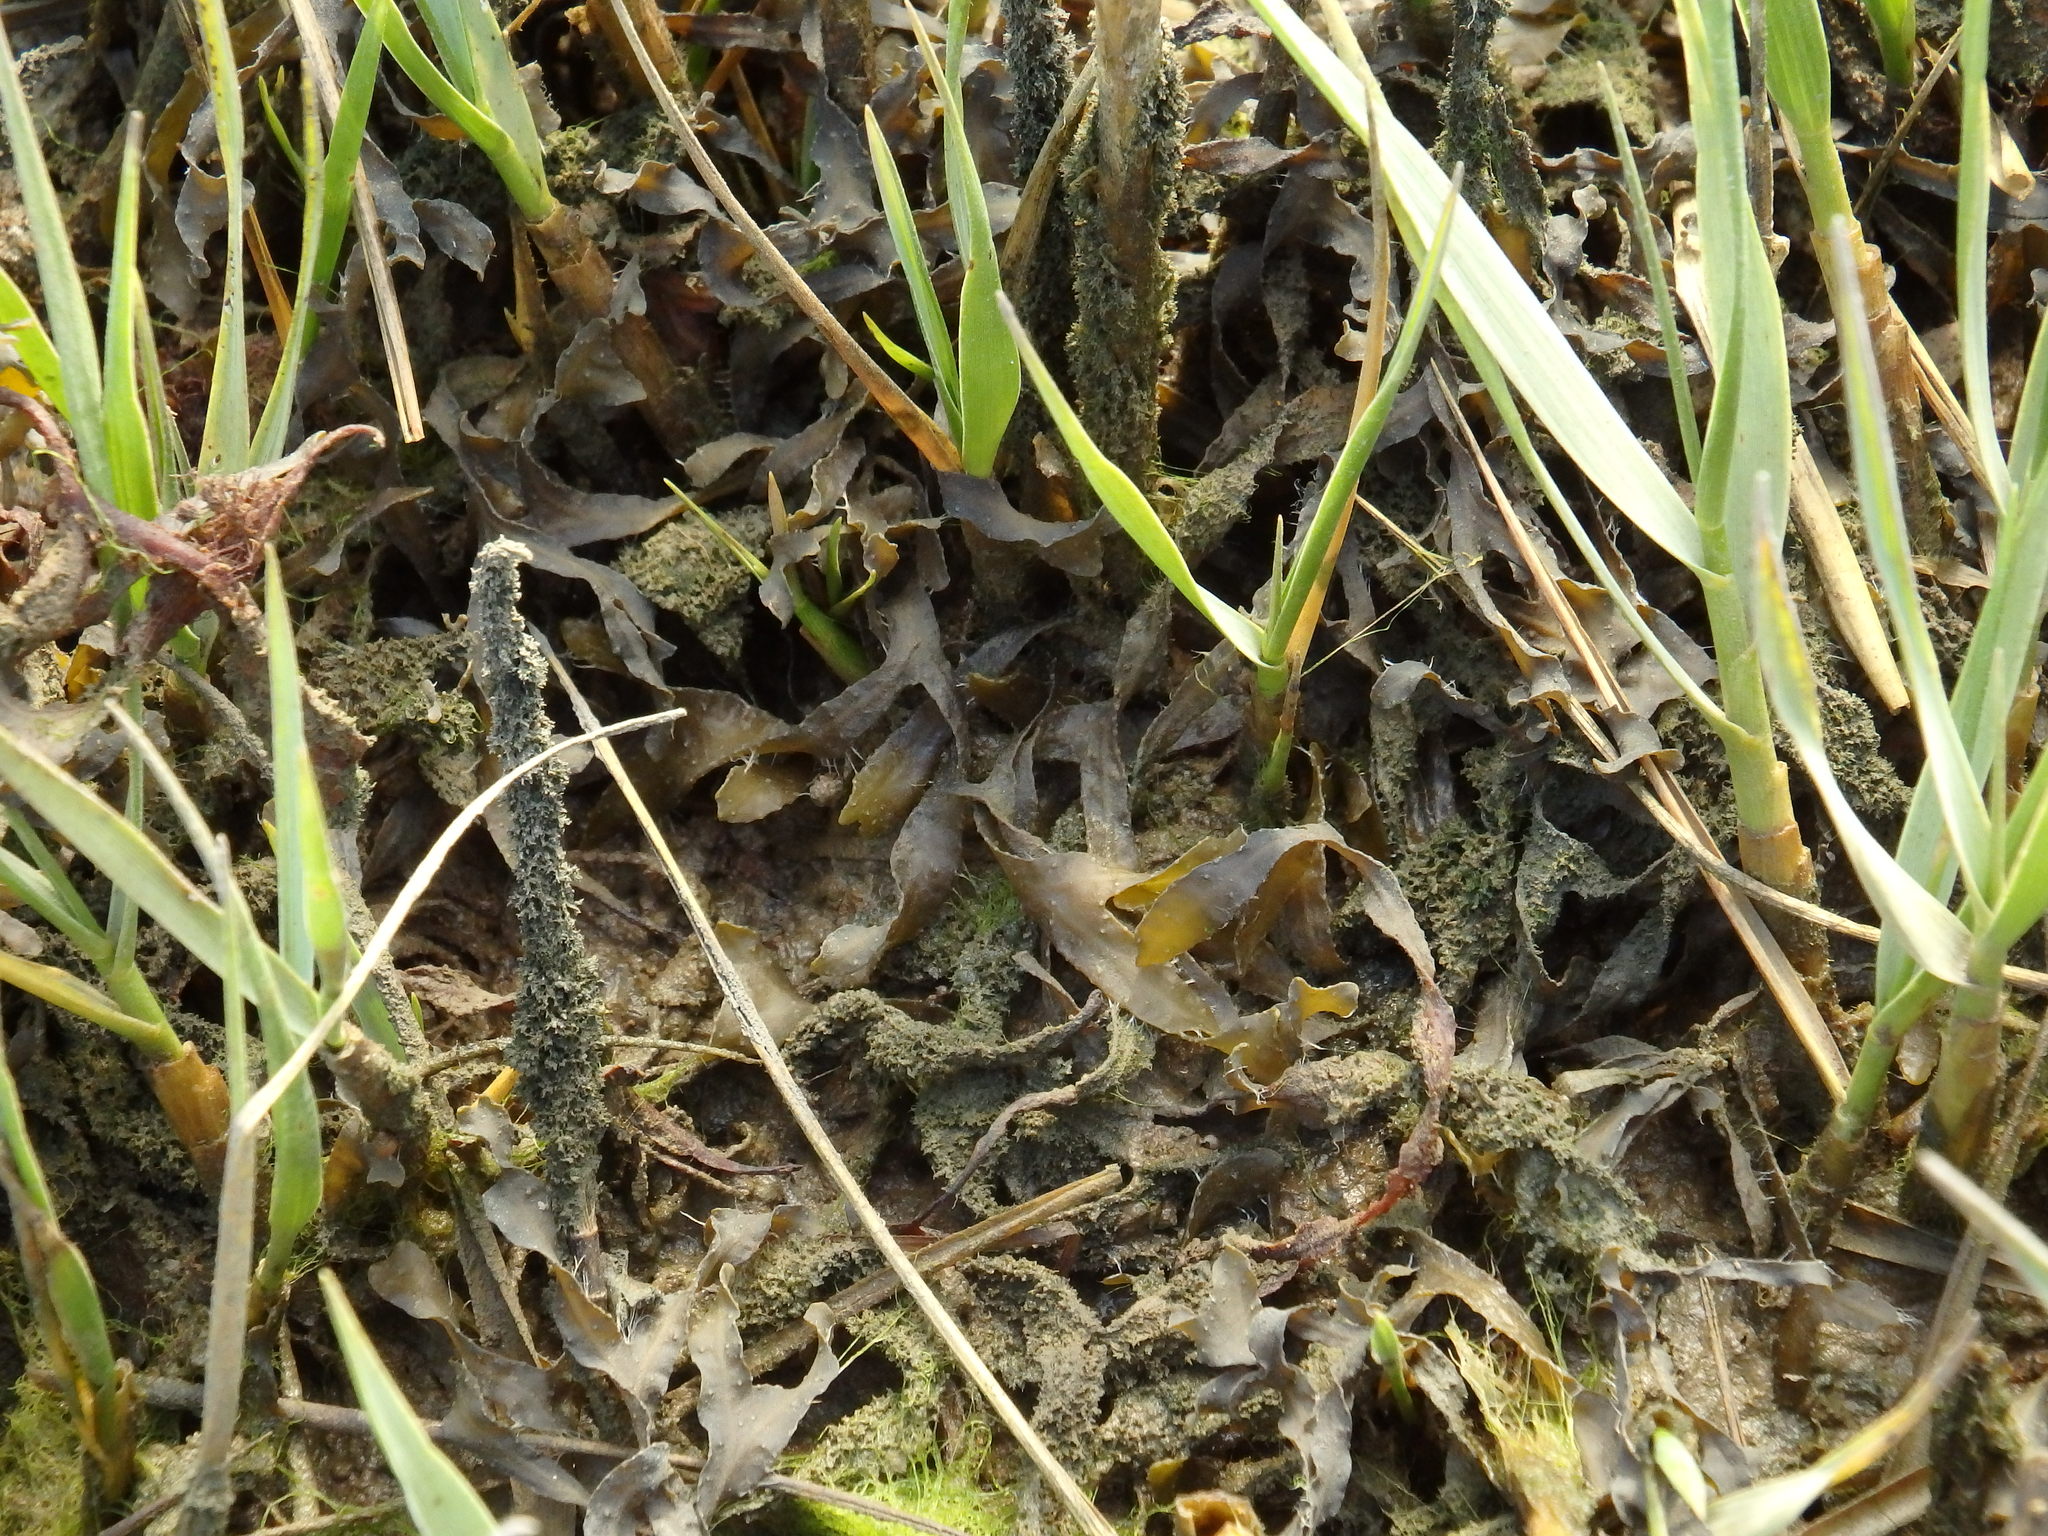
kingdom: Chromista
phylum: Ochrophyta
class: Phaeophyceae
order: Fucales
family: Fucaceae
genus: Fucus
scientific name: Fucus vesiculosus
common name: Bladder wrack
